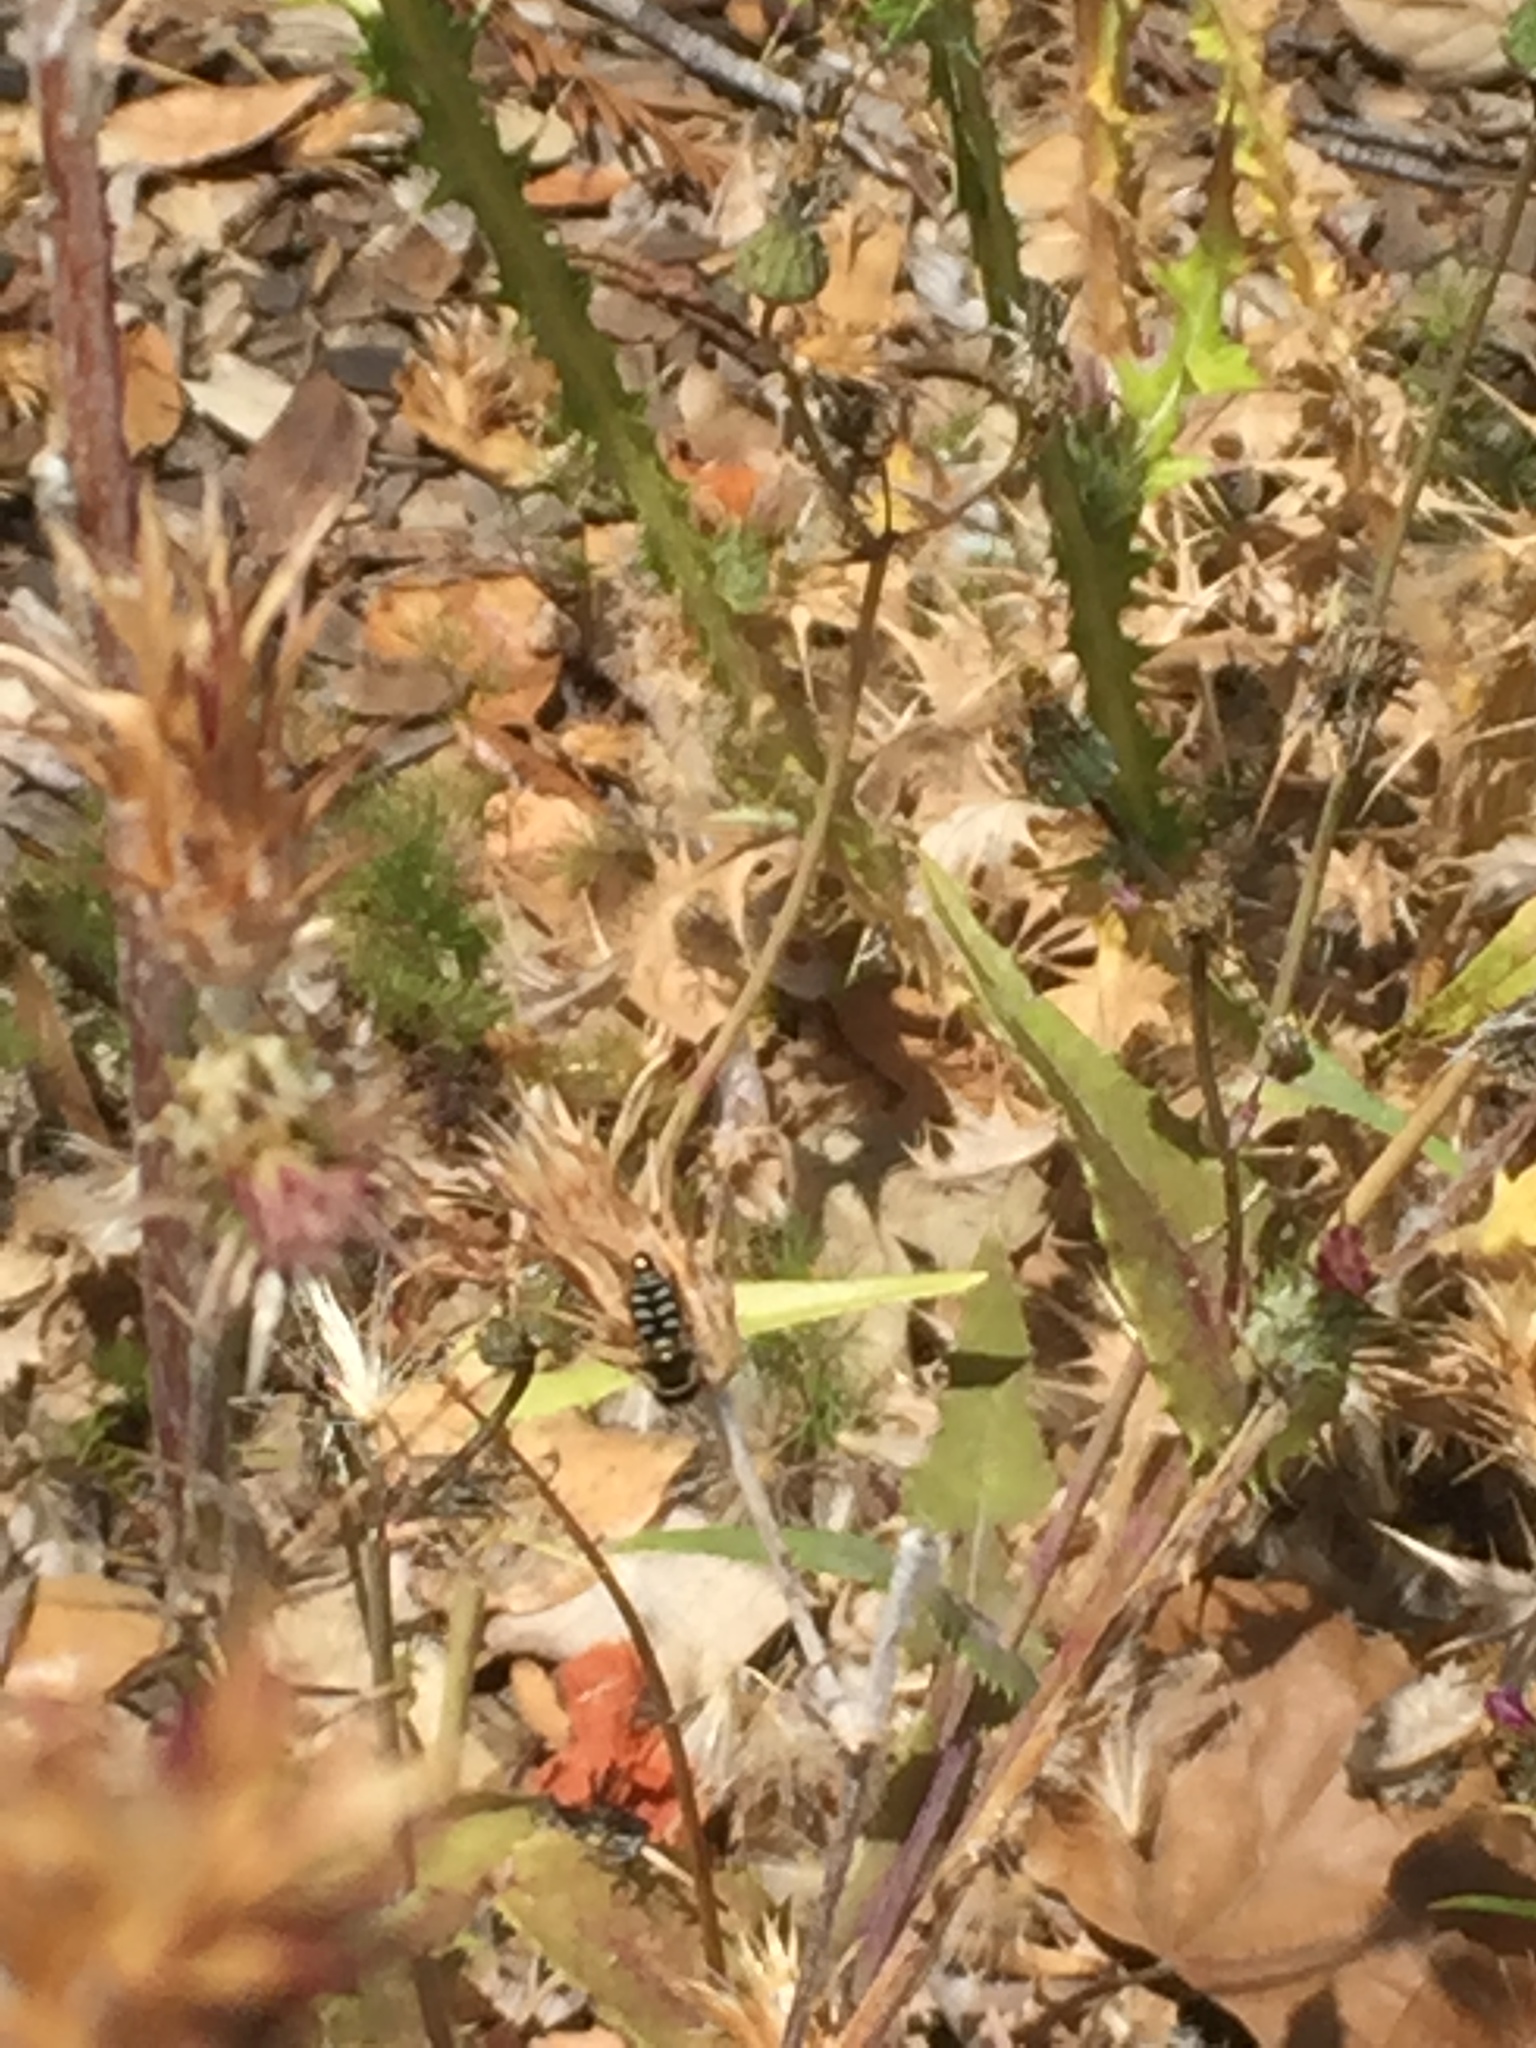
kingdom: Animalia
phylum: Arthropoda
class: Insecta
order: Diptera
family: Syrphidae
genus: Eupeodes
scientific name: Eupeodes volucris
